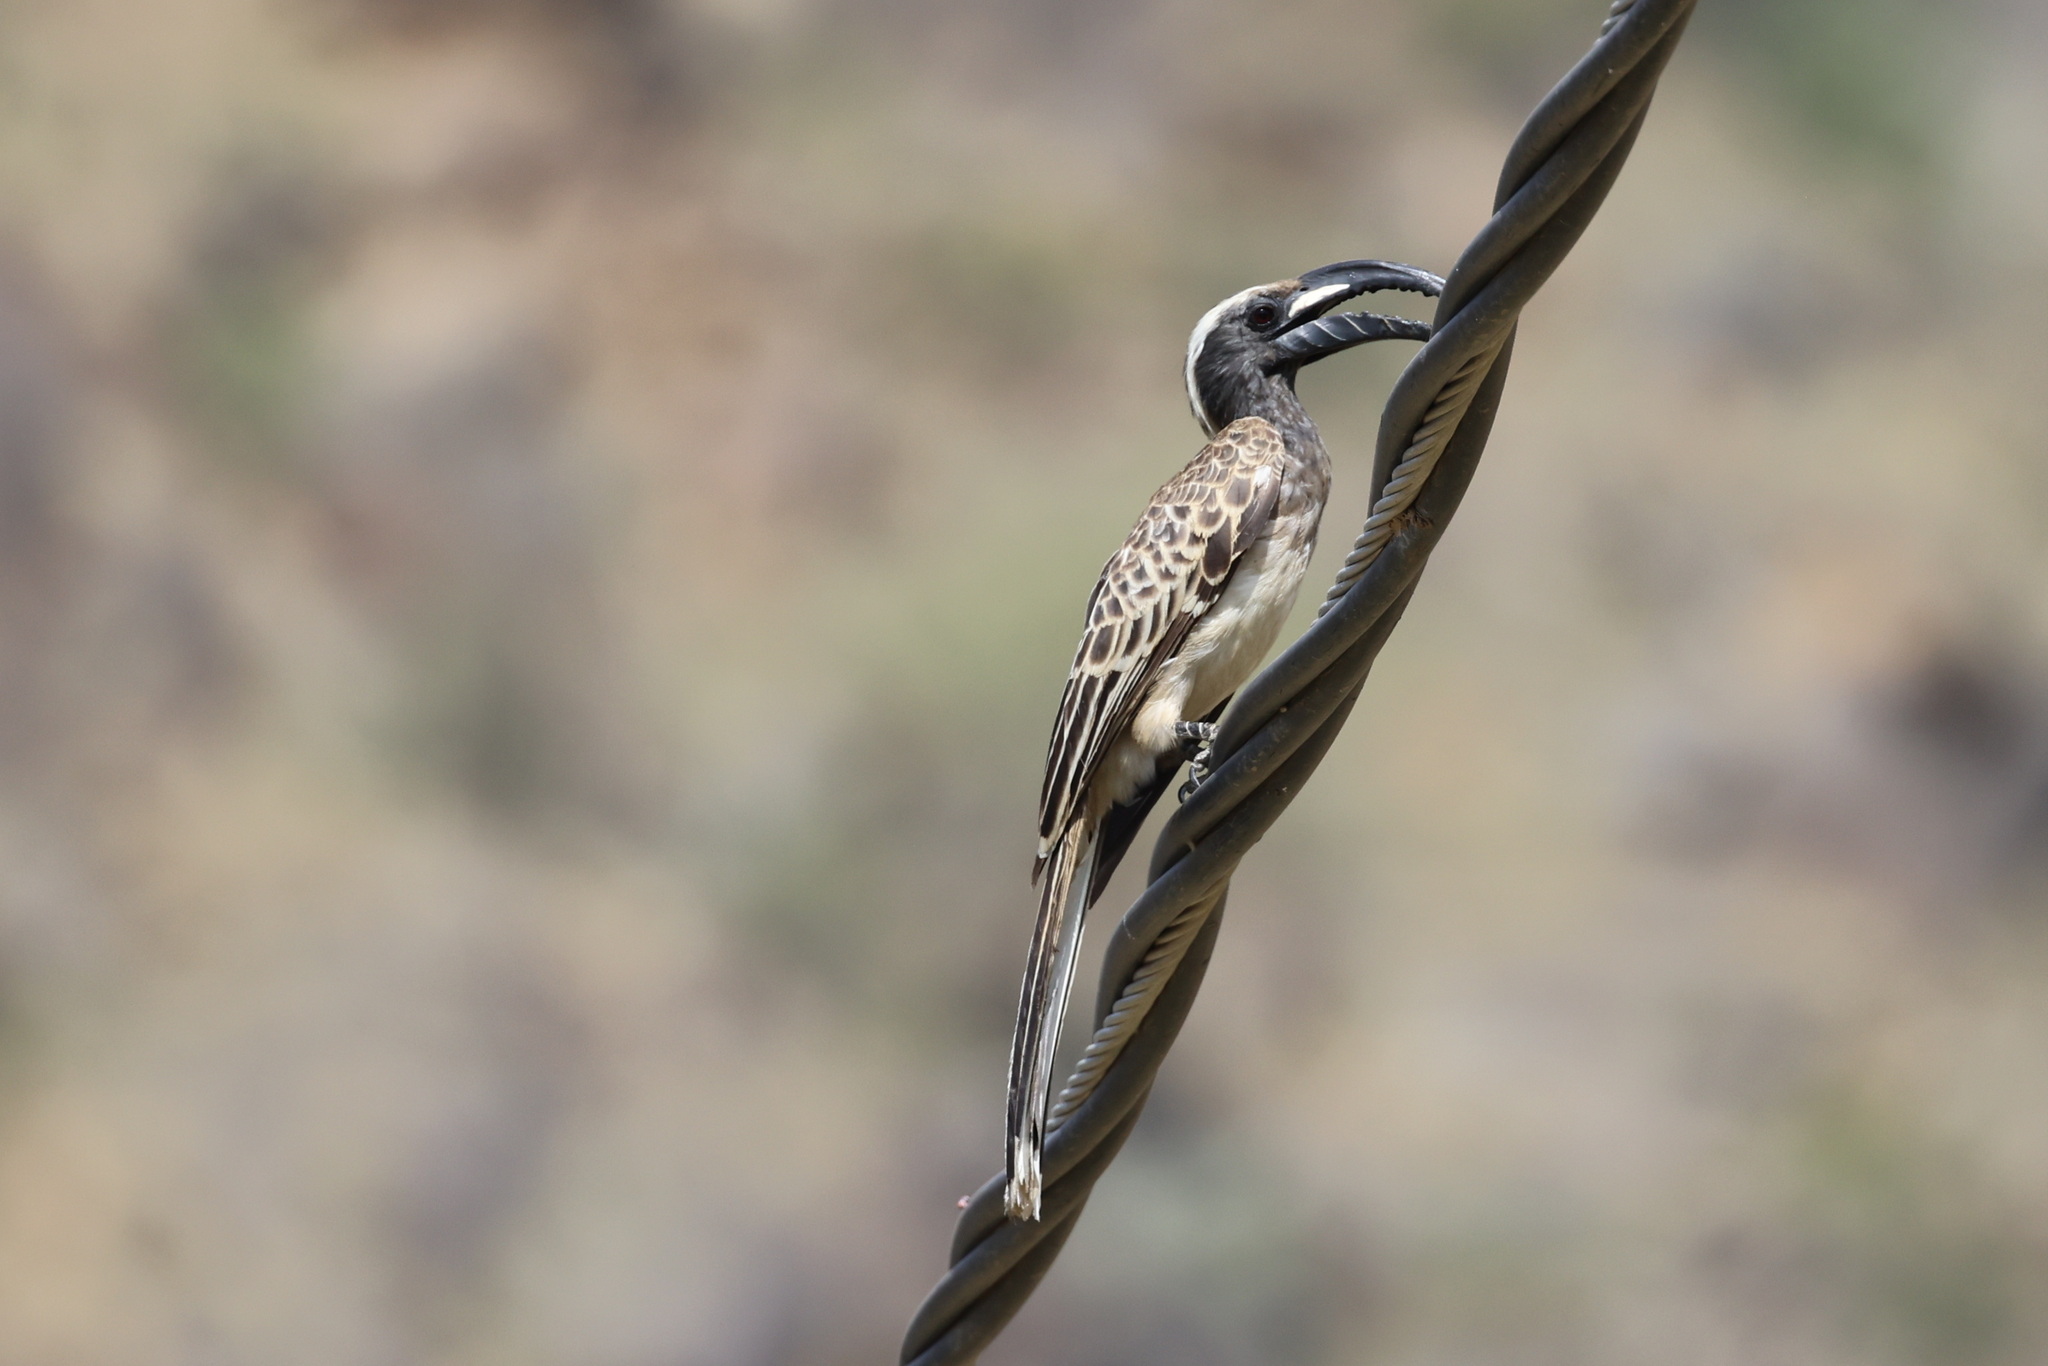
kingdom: Animalia
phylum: Chordata
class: Aves
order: Bucerotiformes
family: Bucerotidae
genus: Lophoceros
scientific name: Lophoceros nasutus
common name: African grey hornbill
